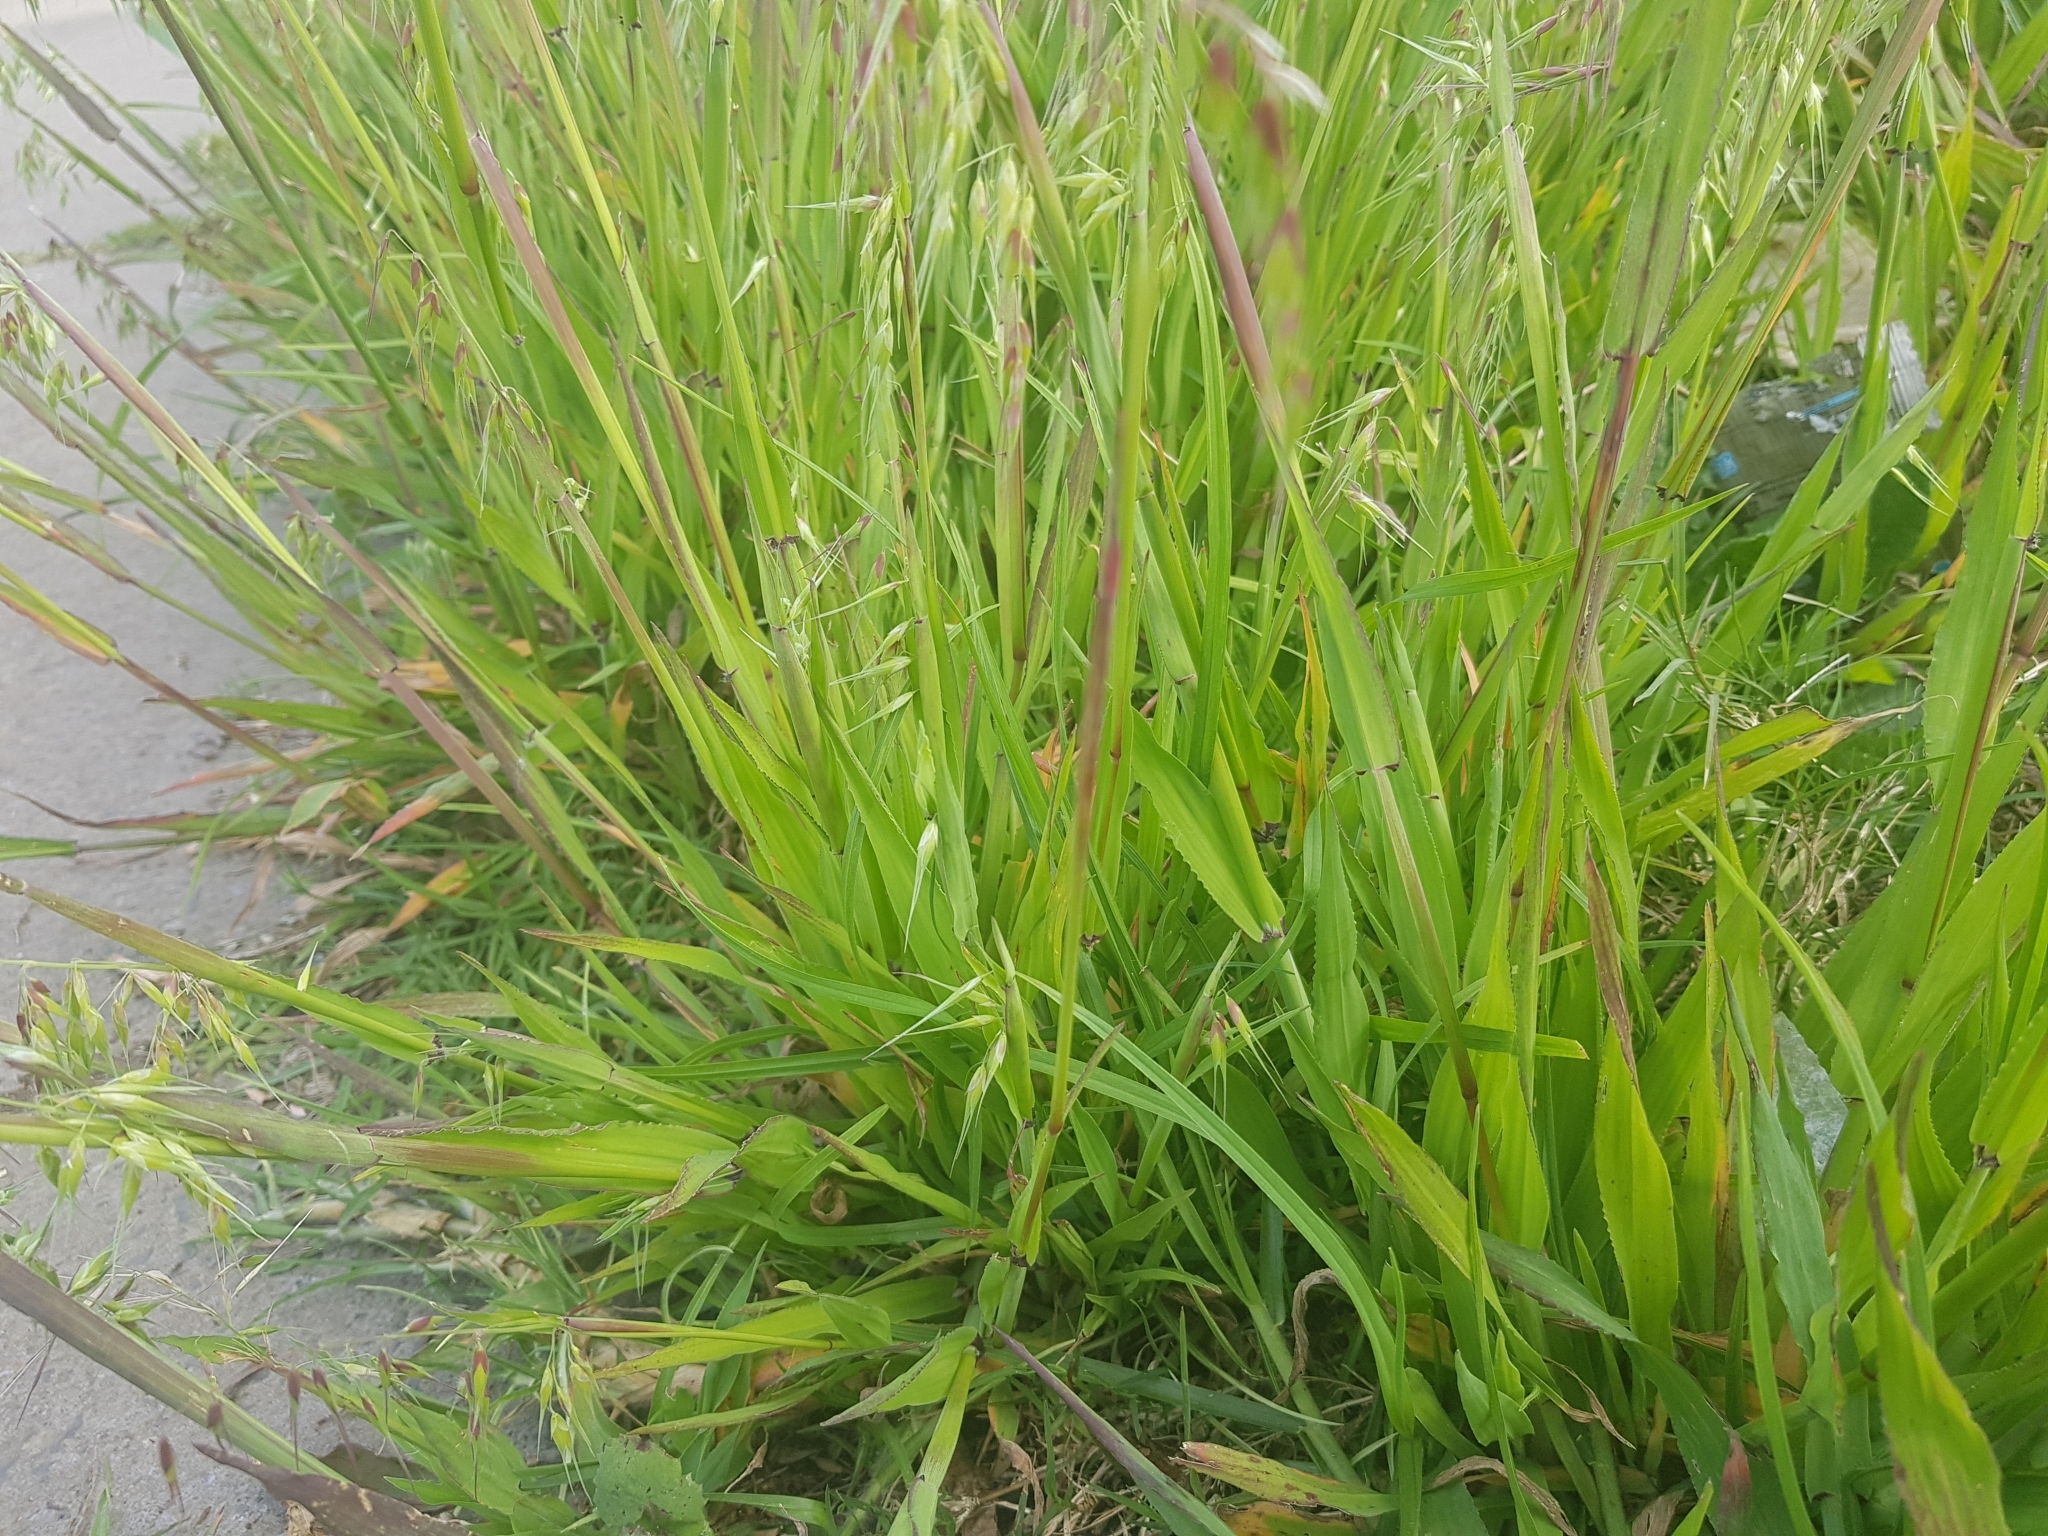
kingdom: Plantae
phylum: Tracheophyta
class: Liliopsida
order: Poales
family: Poaceae
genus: Ehrharta
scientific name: Ehrharta longiflora
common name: Longflowered veldtgrass
